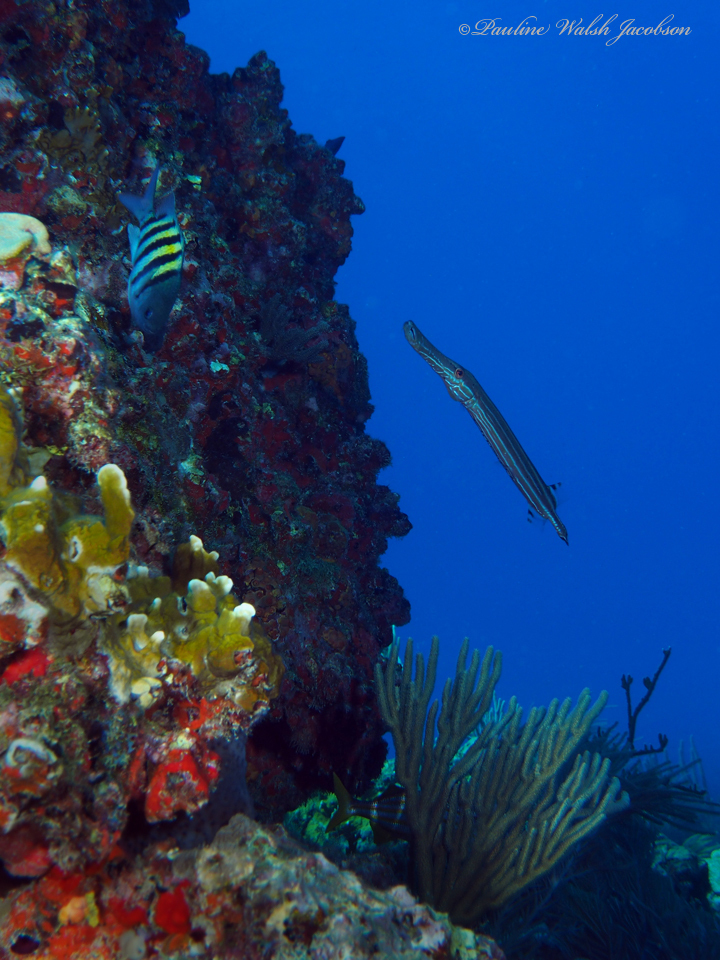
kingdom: Animalia
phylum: Chordata
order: Perciformes
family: Pomacentridae
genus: Abudefduf
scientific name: Abudefduf saxatilis
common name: Sergeant major
